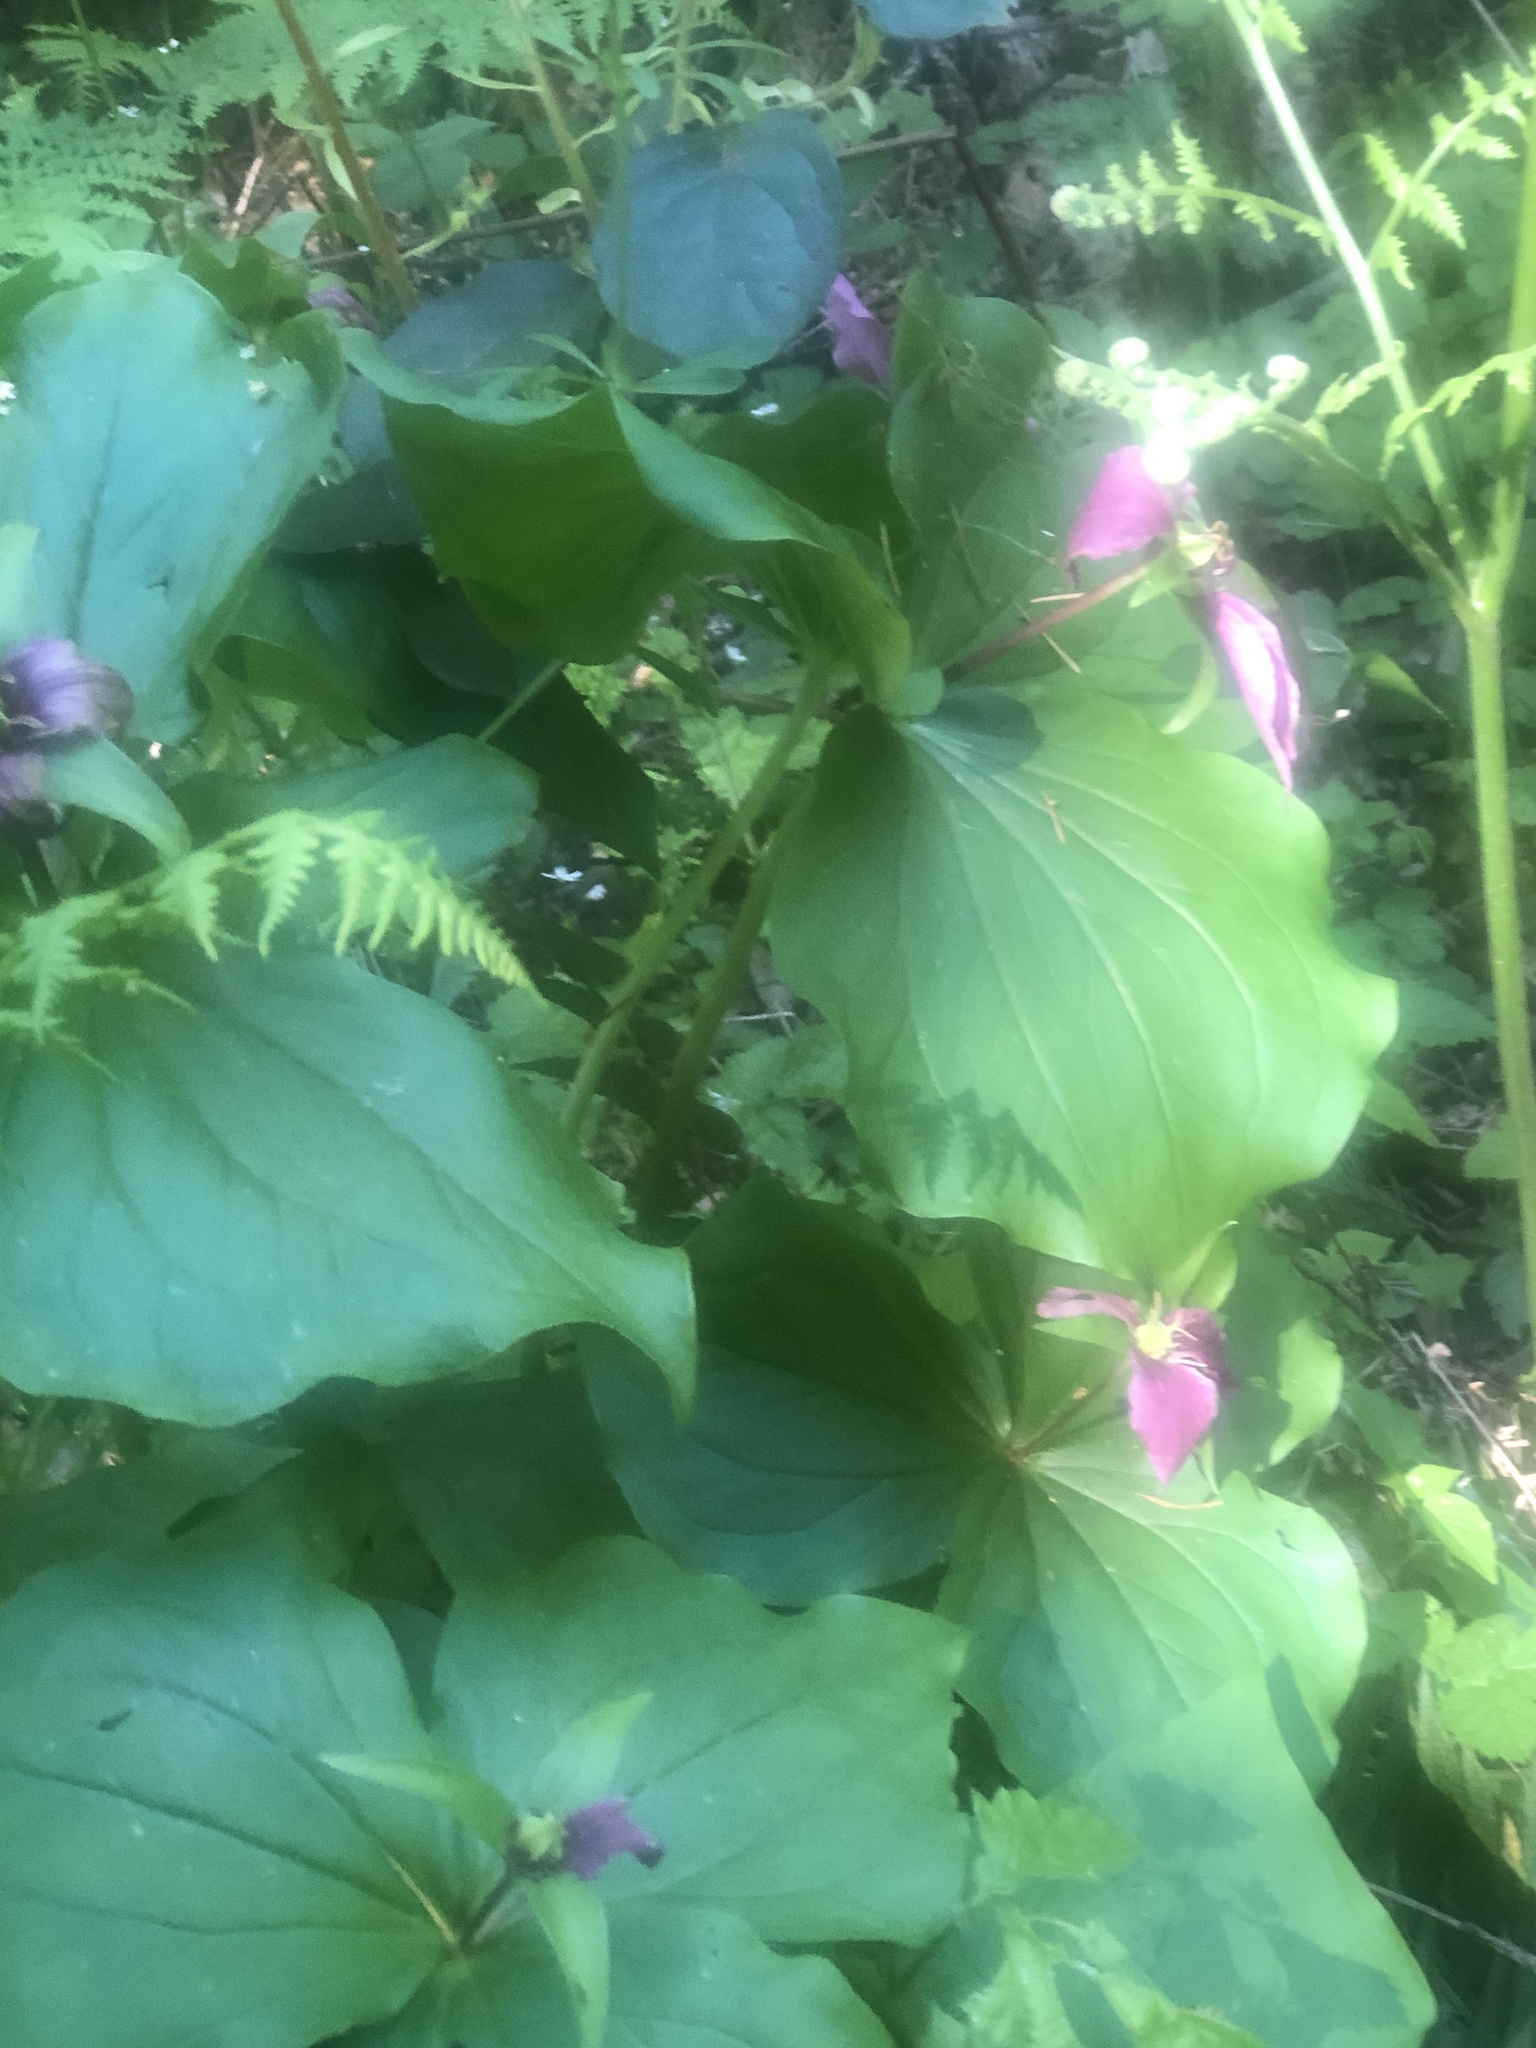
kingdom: Plantae
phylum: Tracheophyta
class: Liliopsida
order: Liliales
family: Melanthiaceae
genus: Trillium
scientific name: Trillium ovatum
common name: Pacific trillium
